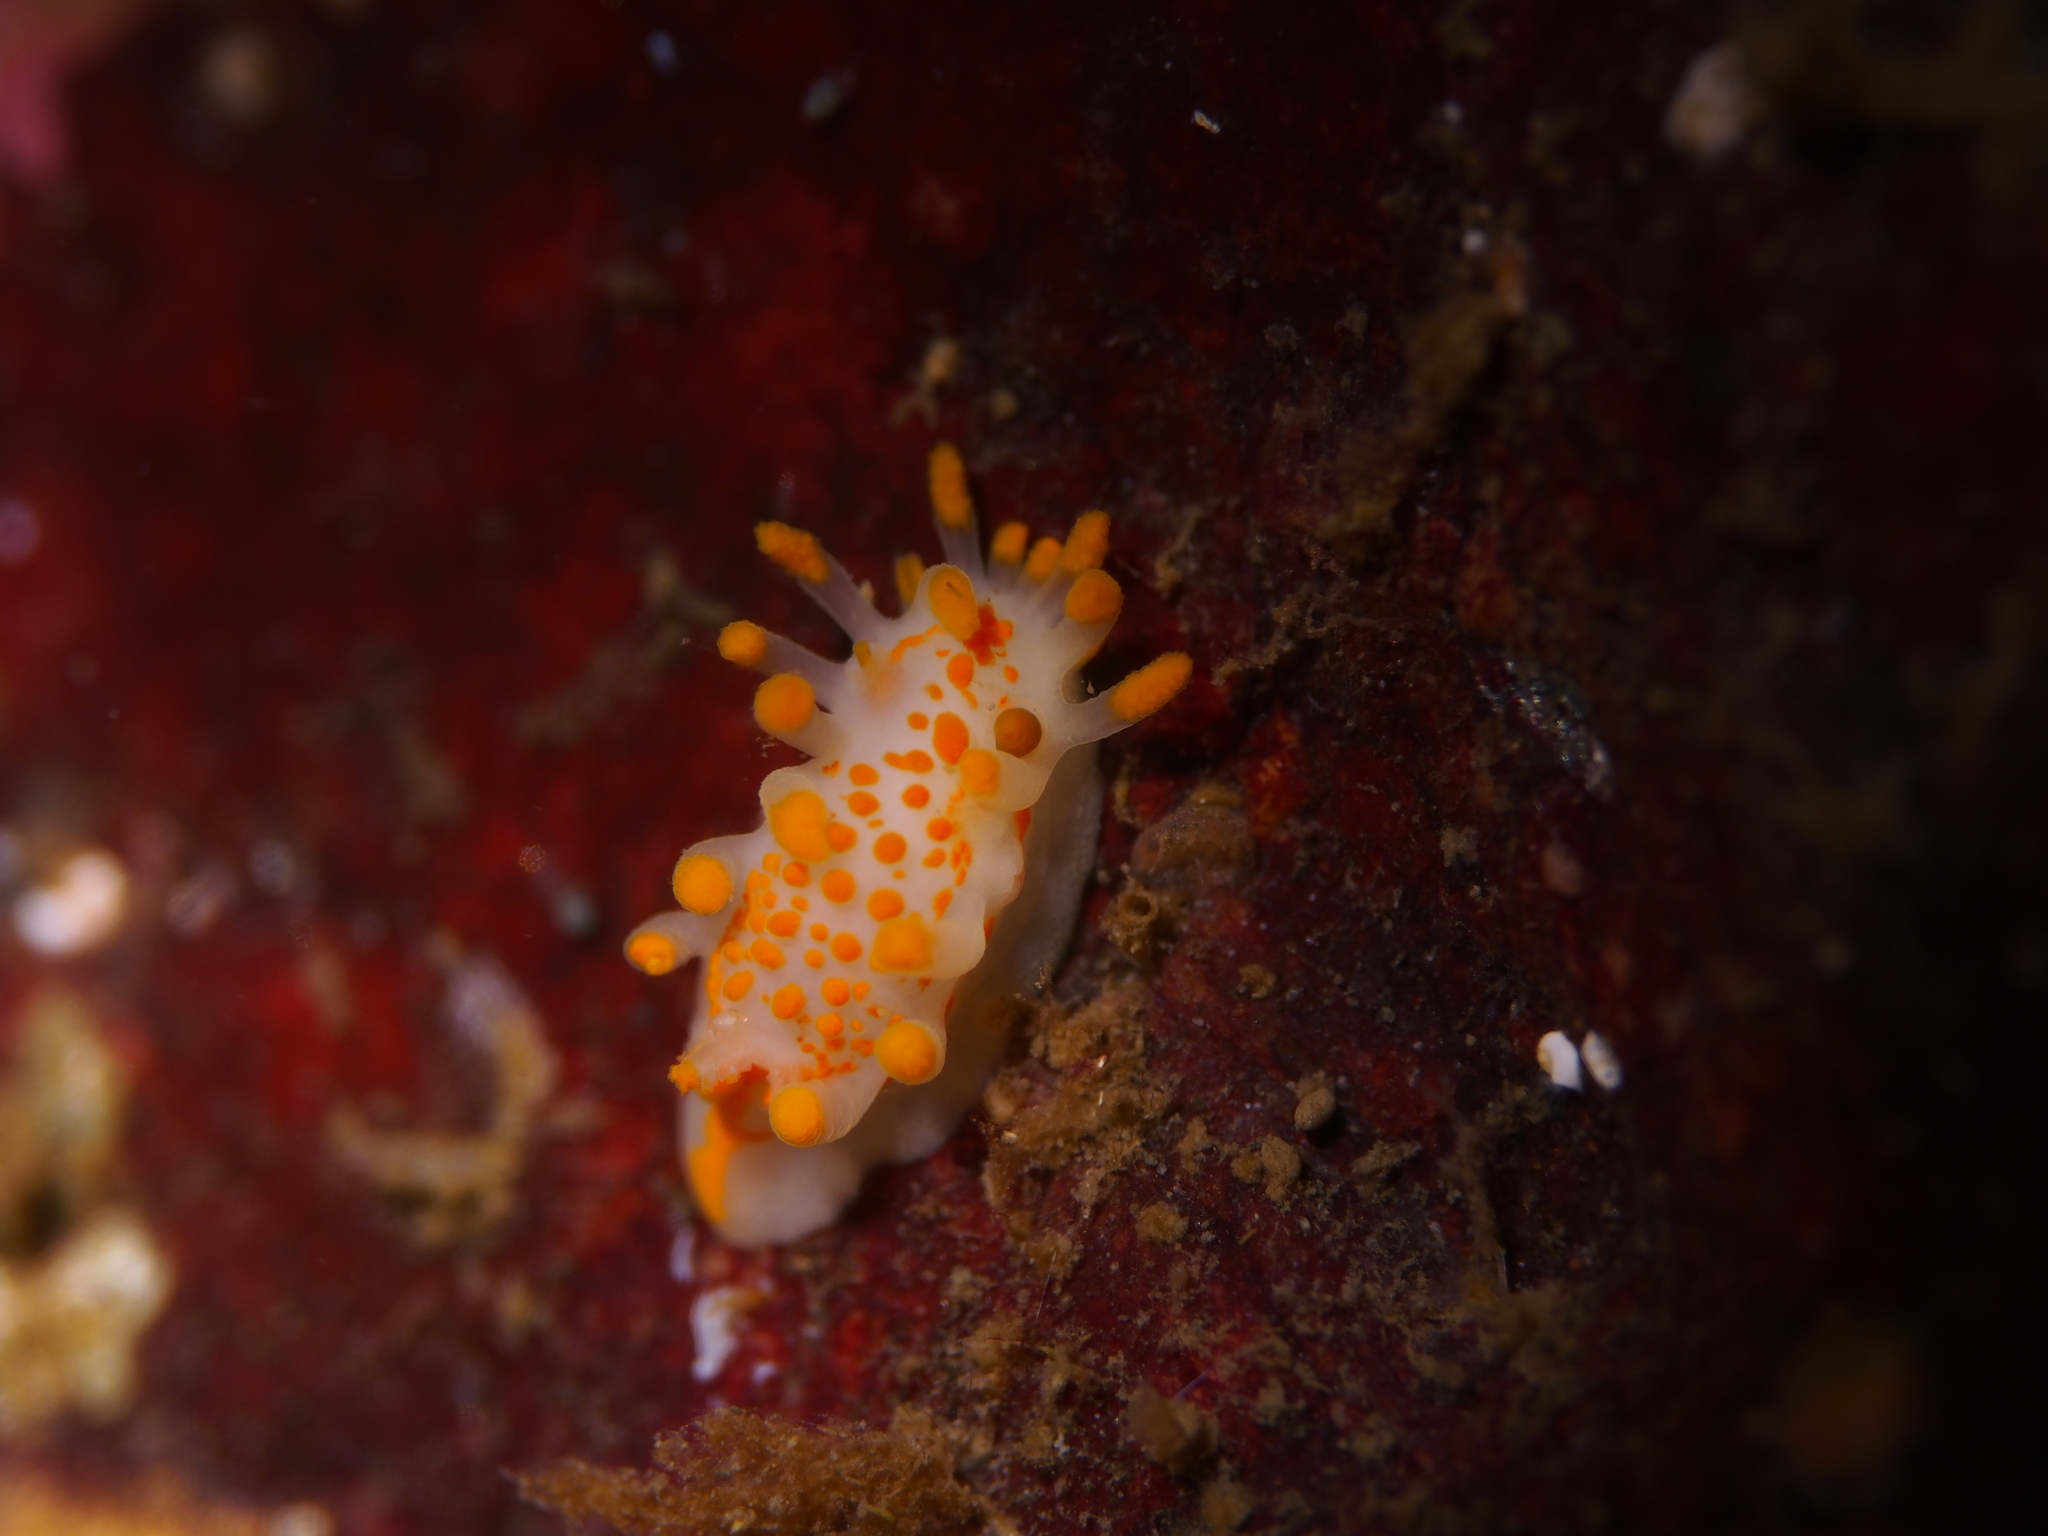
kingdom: Animalia
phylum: Mollusca
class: Gastropoda
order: Nudibranchia
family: Polyceridae
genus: Limacia
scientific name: Limacia clavigera
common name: Orange-clubbed sea slug
